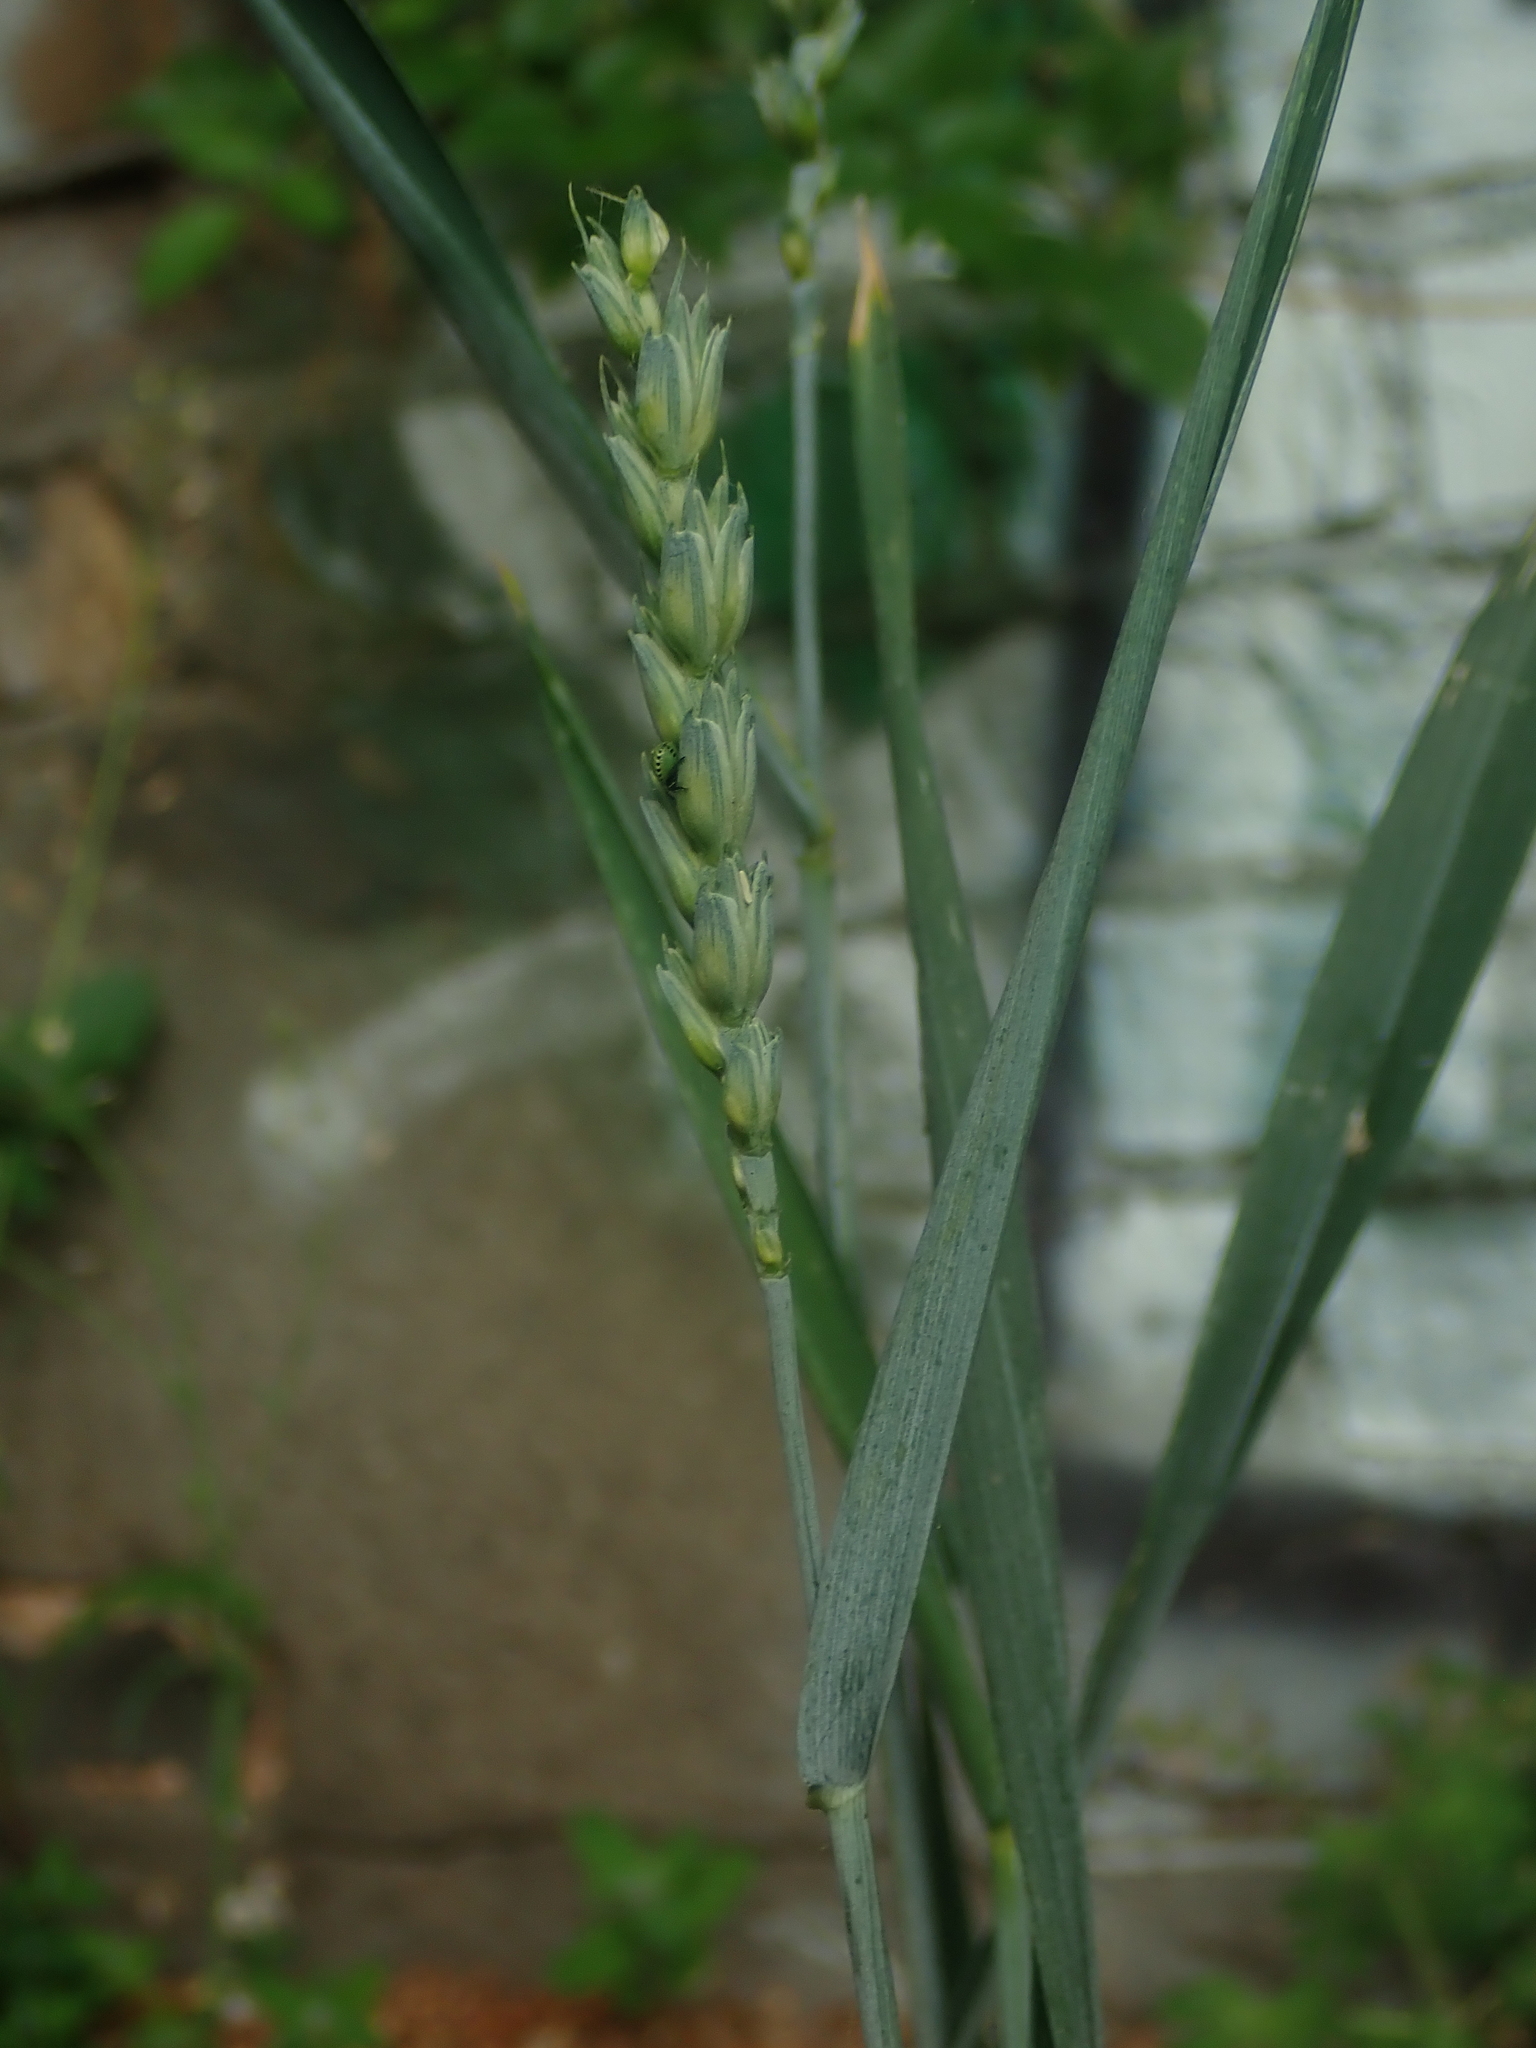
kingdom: Plantae
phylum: Tracheophyta
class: Liliopsida
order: Poales
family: Poaceae
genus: Triticum
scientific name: Triticum aestivum
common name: Common wheat
